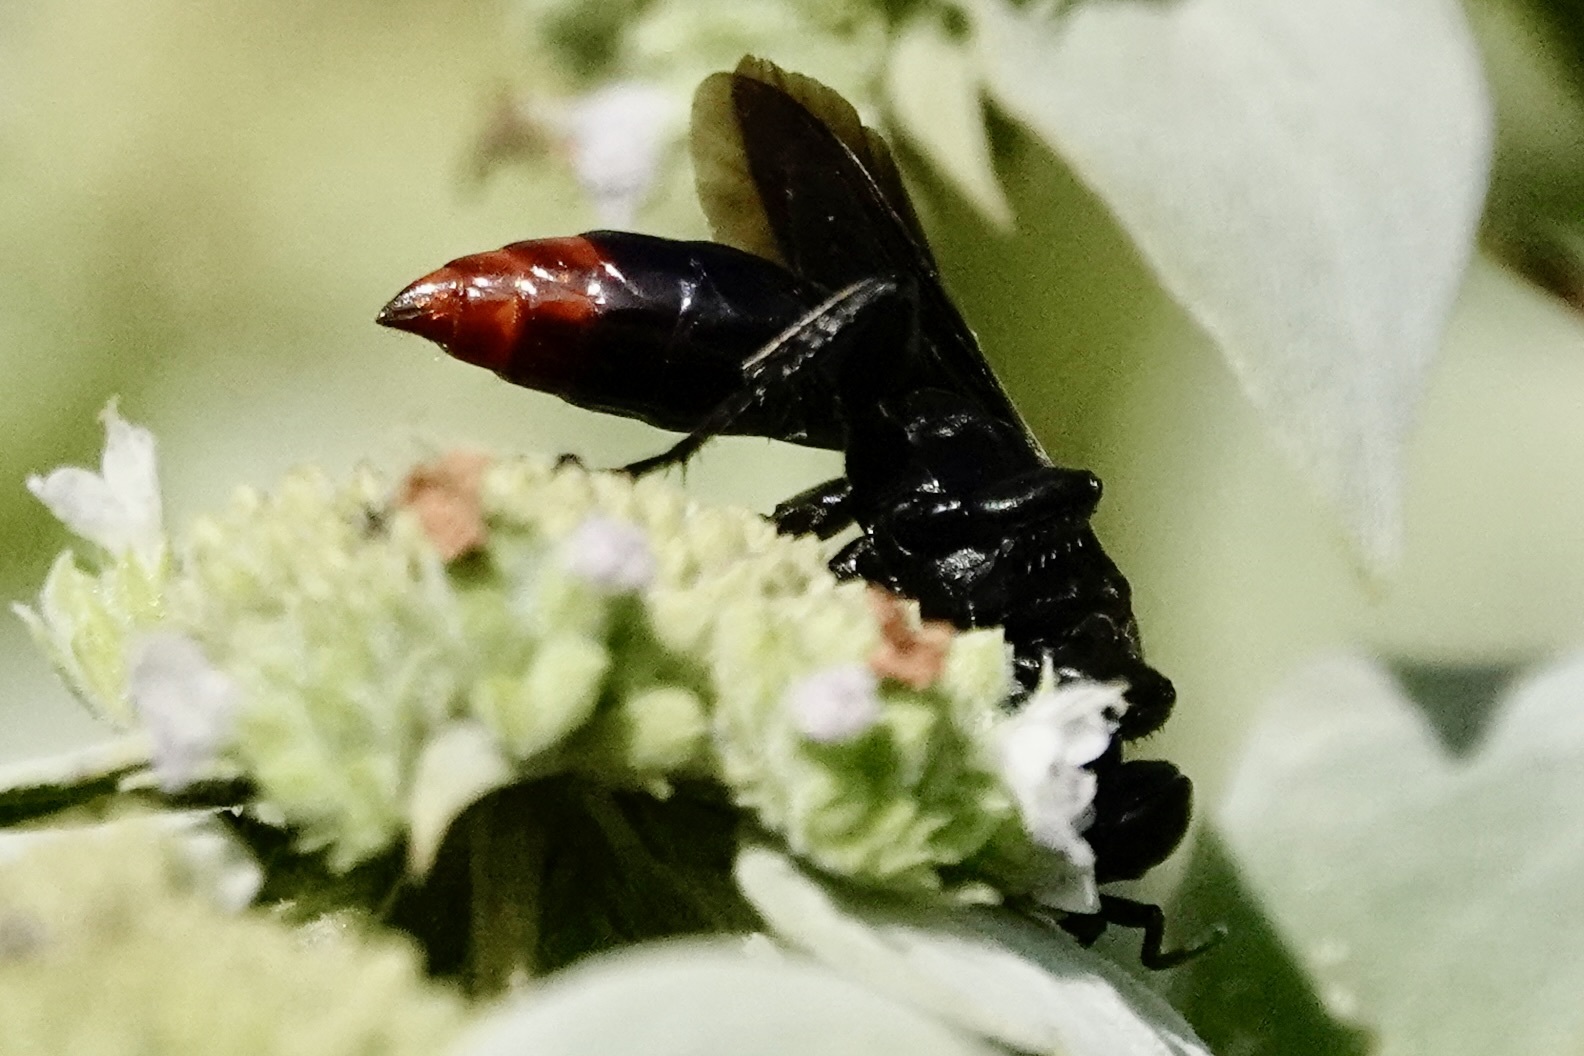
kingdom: Animalia
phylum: Arthropoda
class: Insecta
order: Hymenoptera
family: Crabronidae
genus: Larra
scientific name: Larra analis
